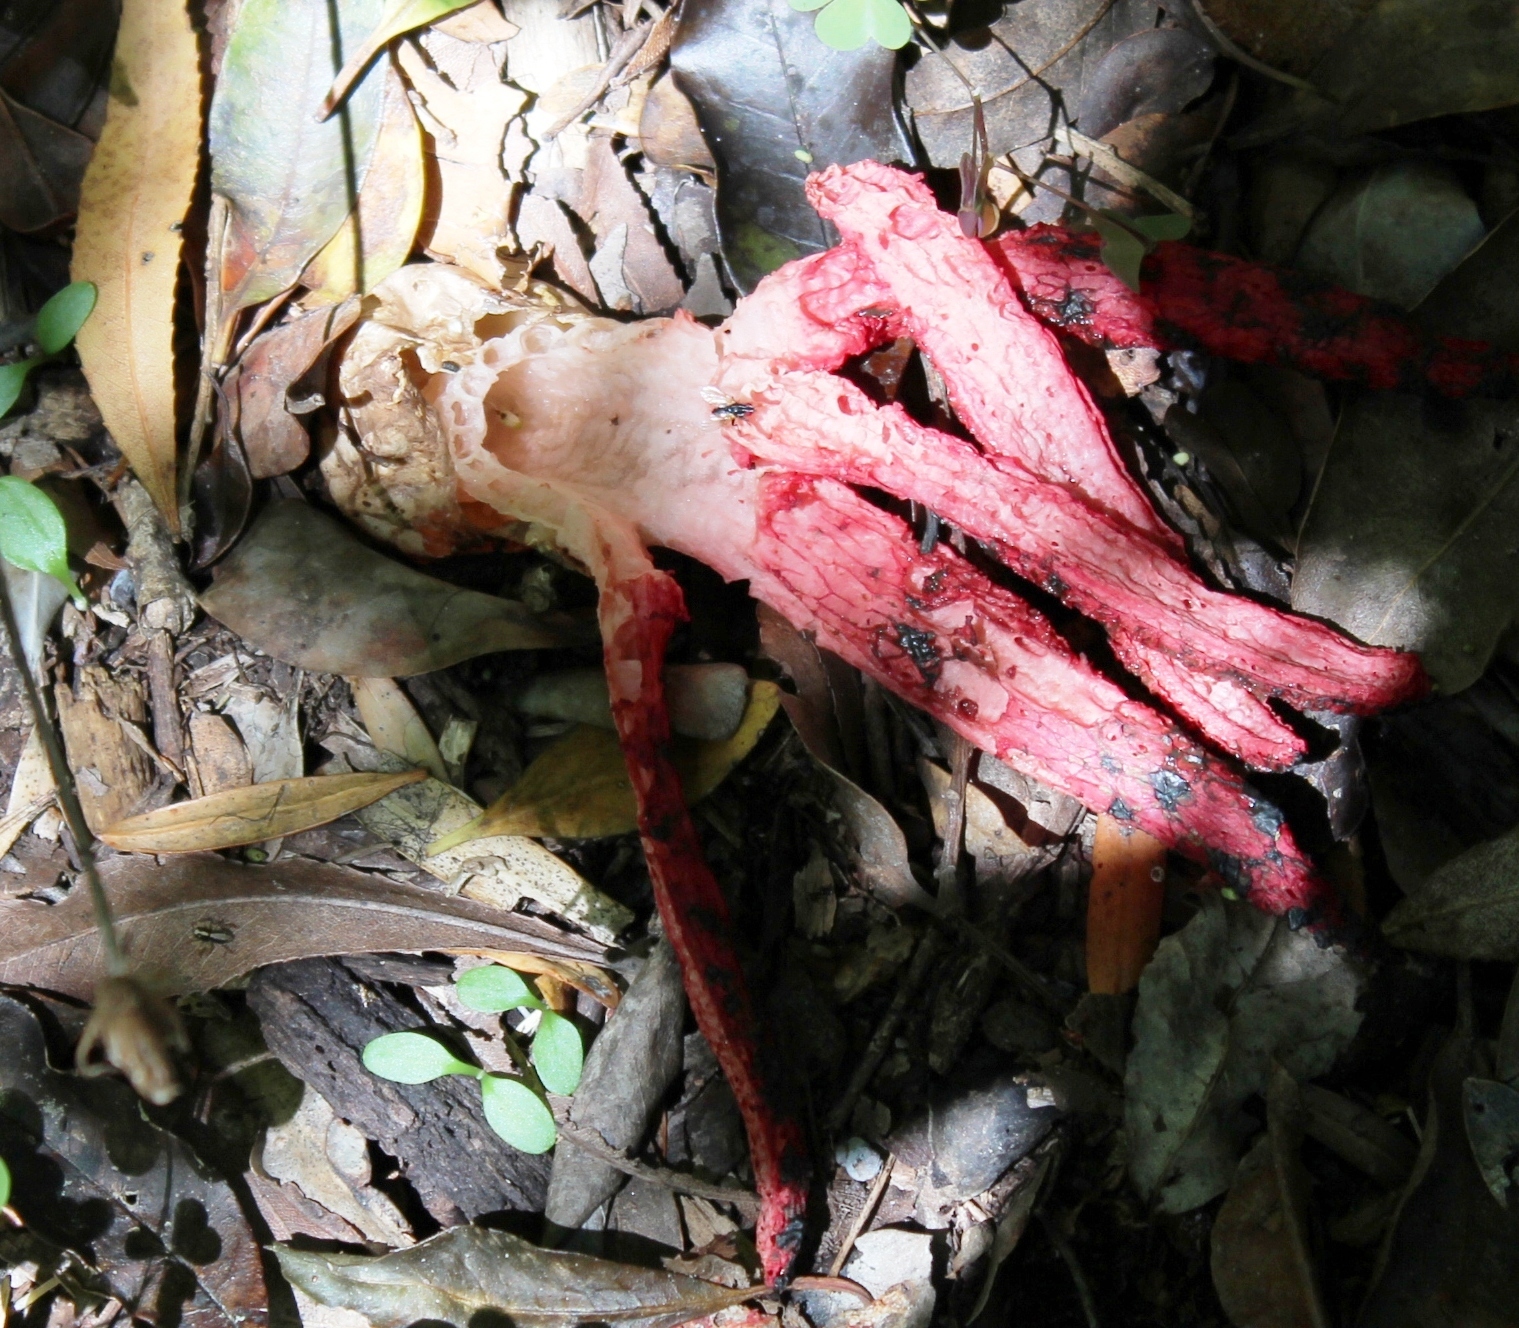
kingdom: Fungi
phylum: Basidiomycota
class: Agaricomycetes
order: Phallales
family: Phallaceae
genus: Clathrus
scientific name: Clathrus archeri
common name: Devil's fingers
